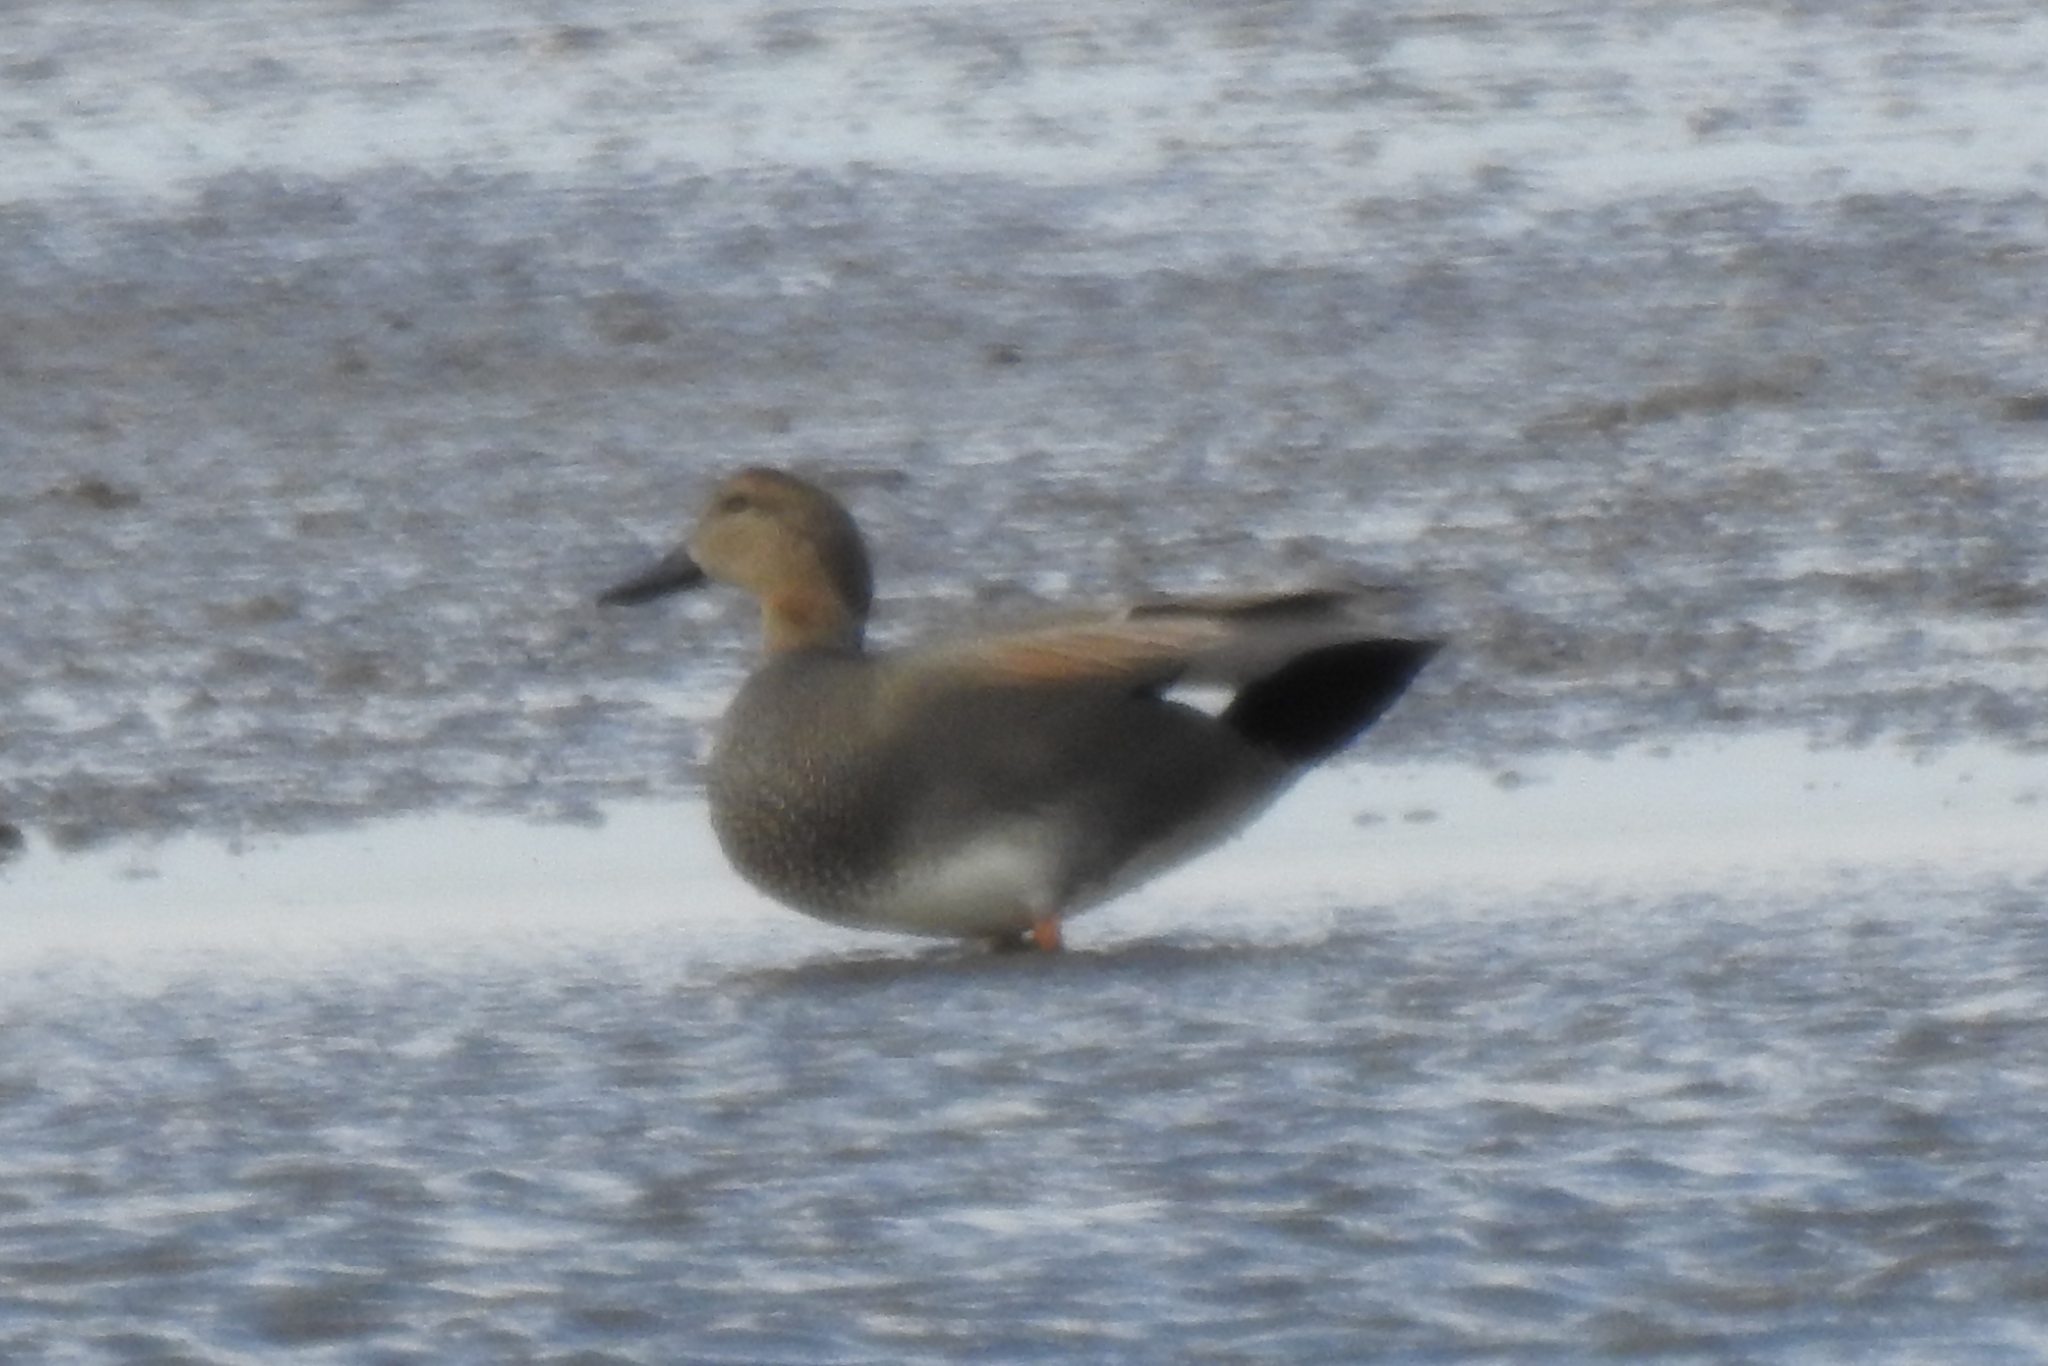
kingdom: Animalia
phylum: Chordata
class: Aves
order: Anseriformes
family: Anatidae
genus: Mareca
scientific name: Mareca strepera
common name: Gadwall
